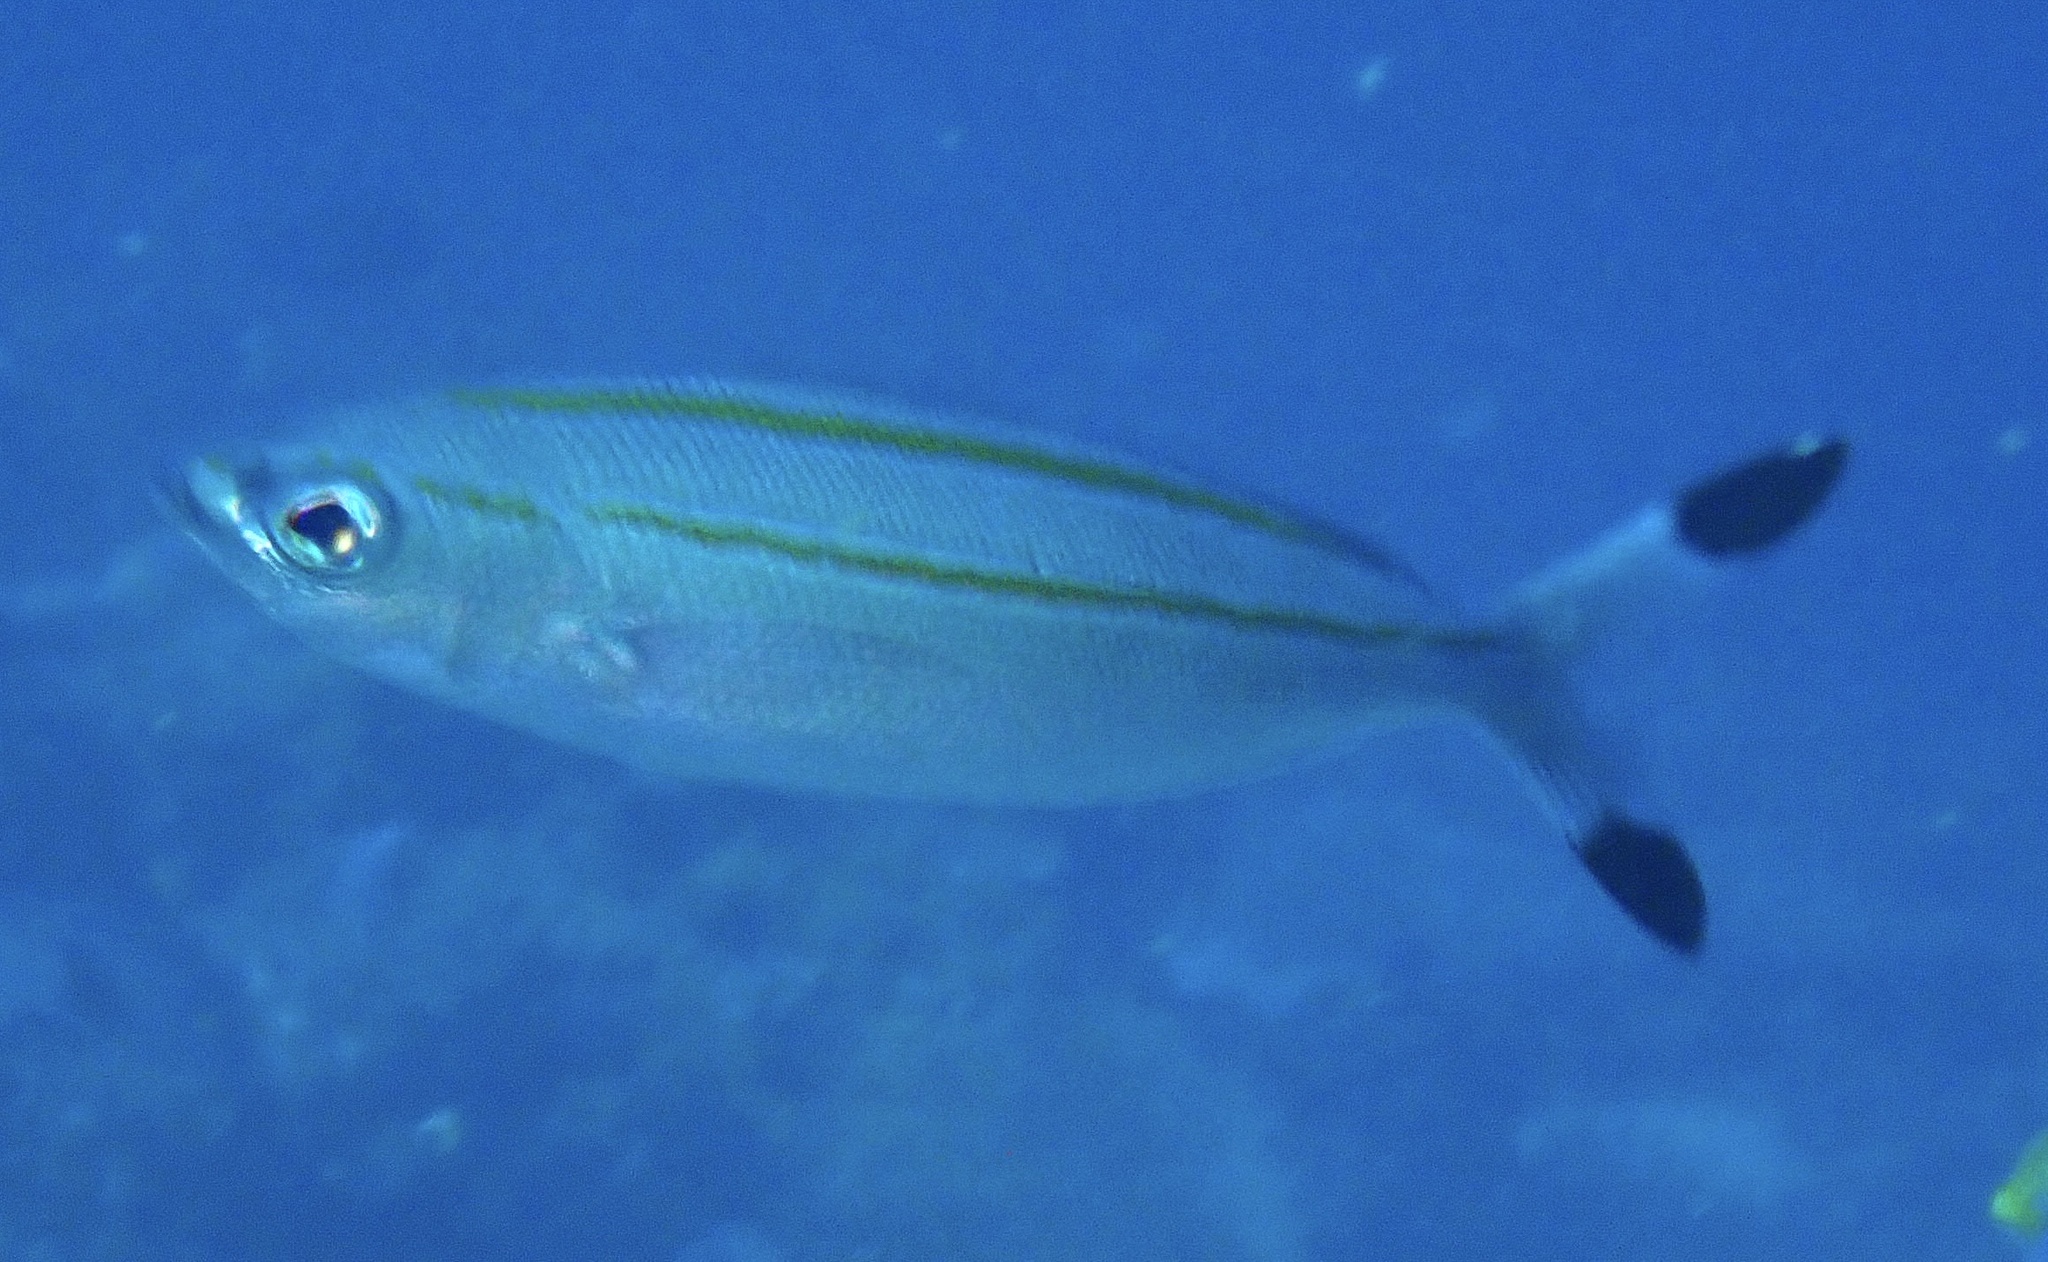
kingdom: Animalia
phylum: Chordata
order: Perciformes
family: Caesionidae
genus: Pterocaesio
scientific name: Pterocaesio digramma
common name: Double-lined fusilier
